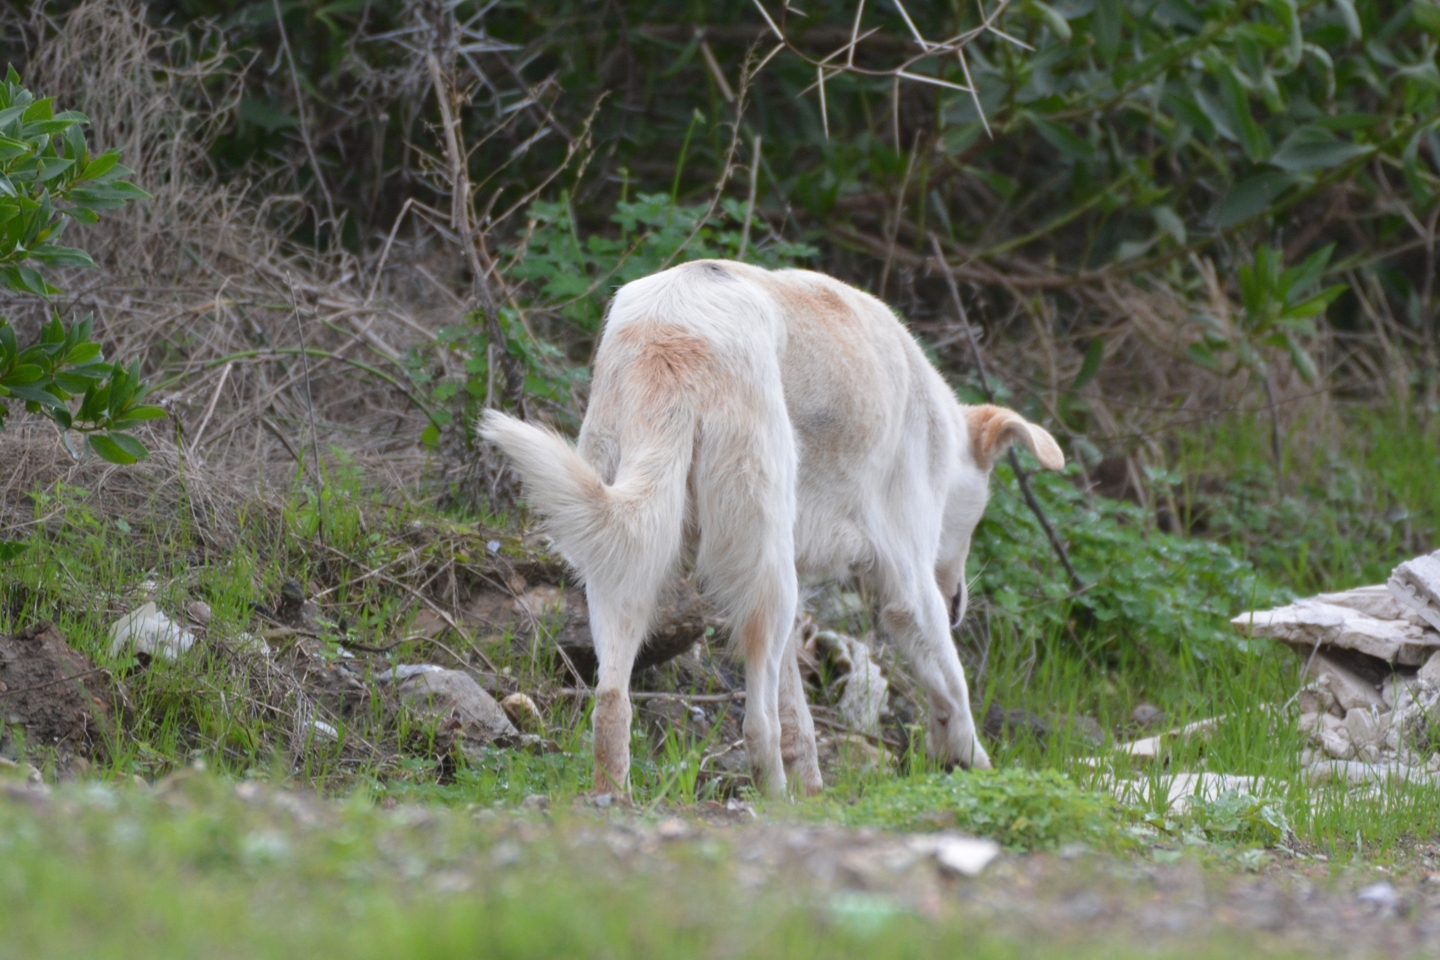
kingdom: Animalia
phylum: Chordata
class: Mammalia
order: Carnivora
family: Canidae
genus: Canis
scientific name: Canis lupus
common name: Gray wolf
